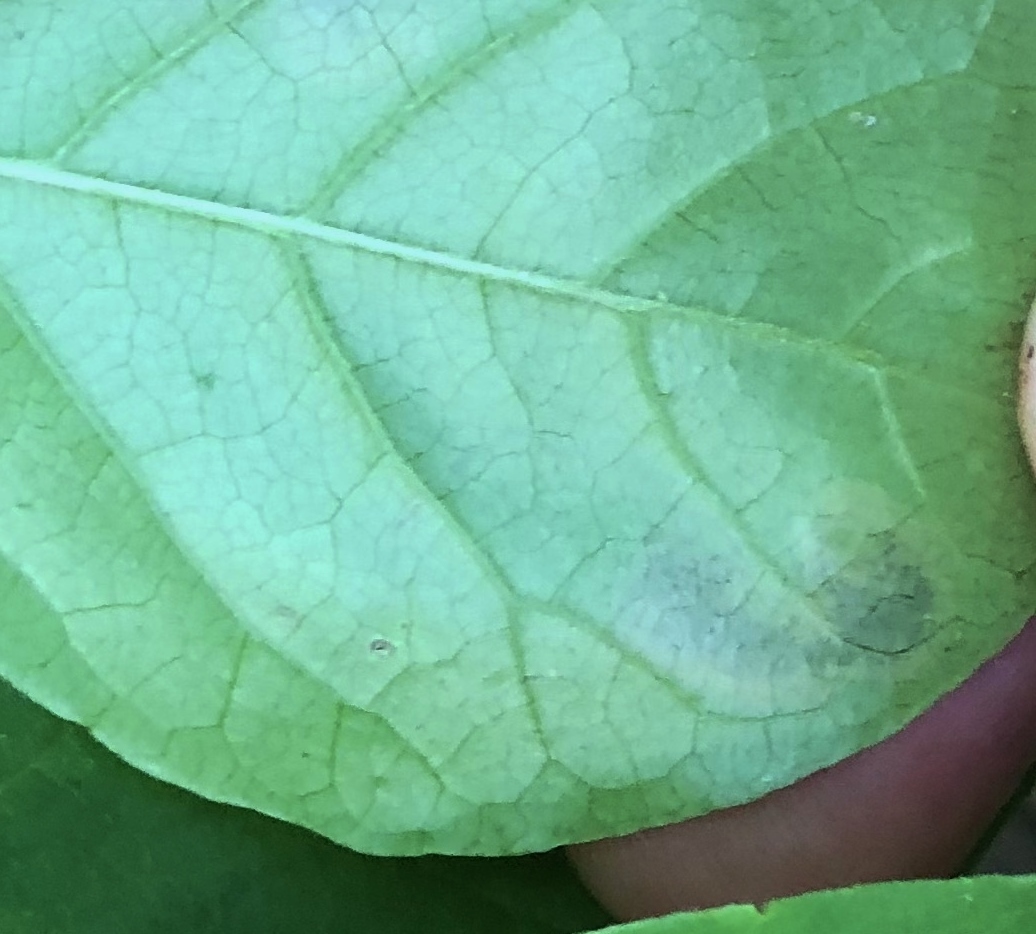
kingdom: Animalia
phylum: Arthropoda
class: Insecta
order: Lepidoptera
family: Nepticulidae
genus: Ectoedemia
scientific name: Ectoedemia nyssaefoliella
